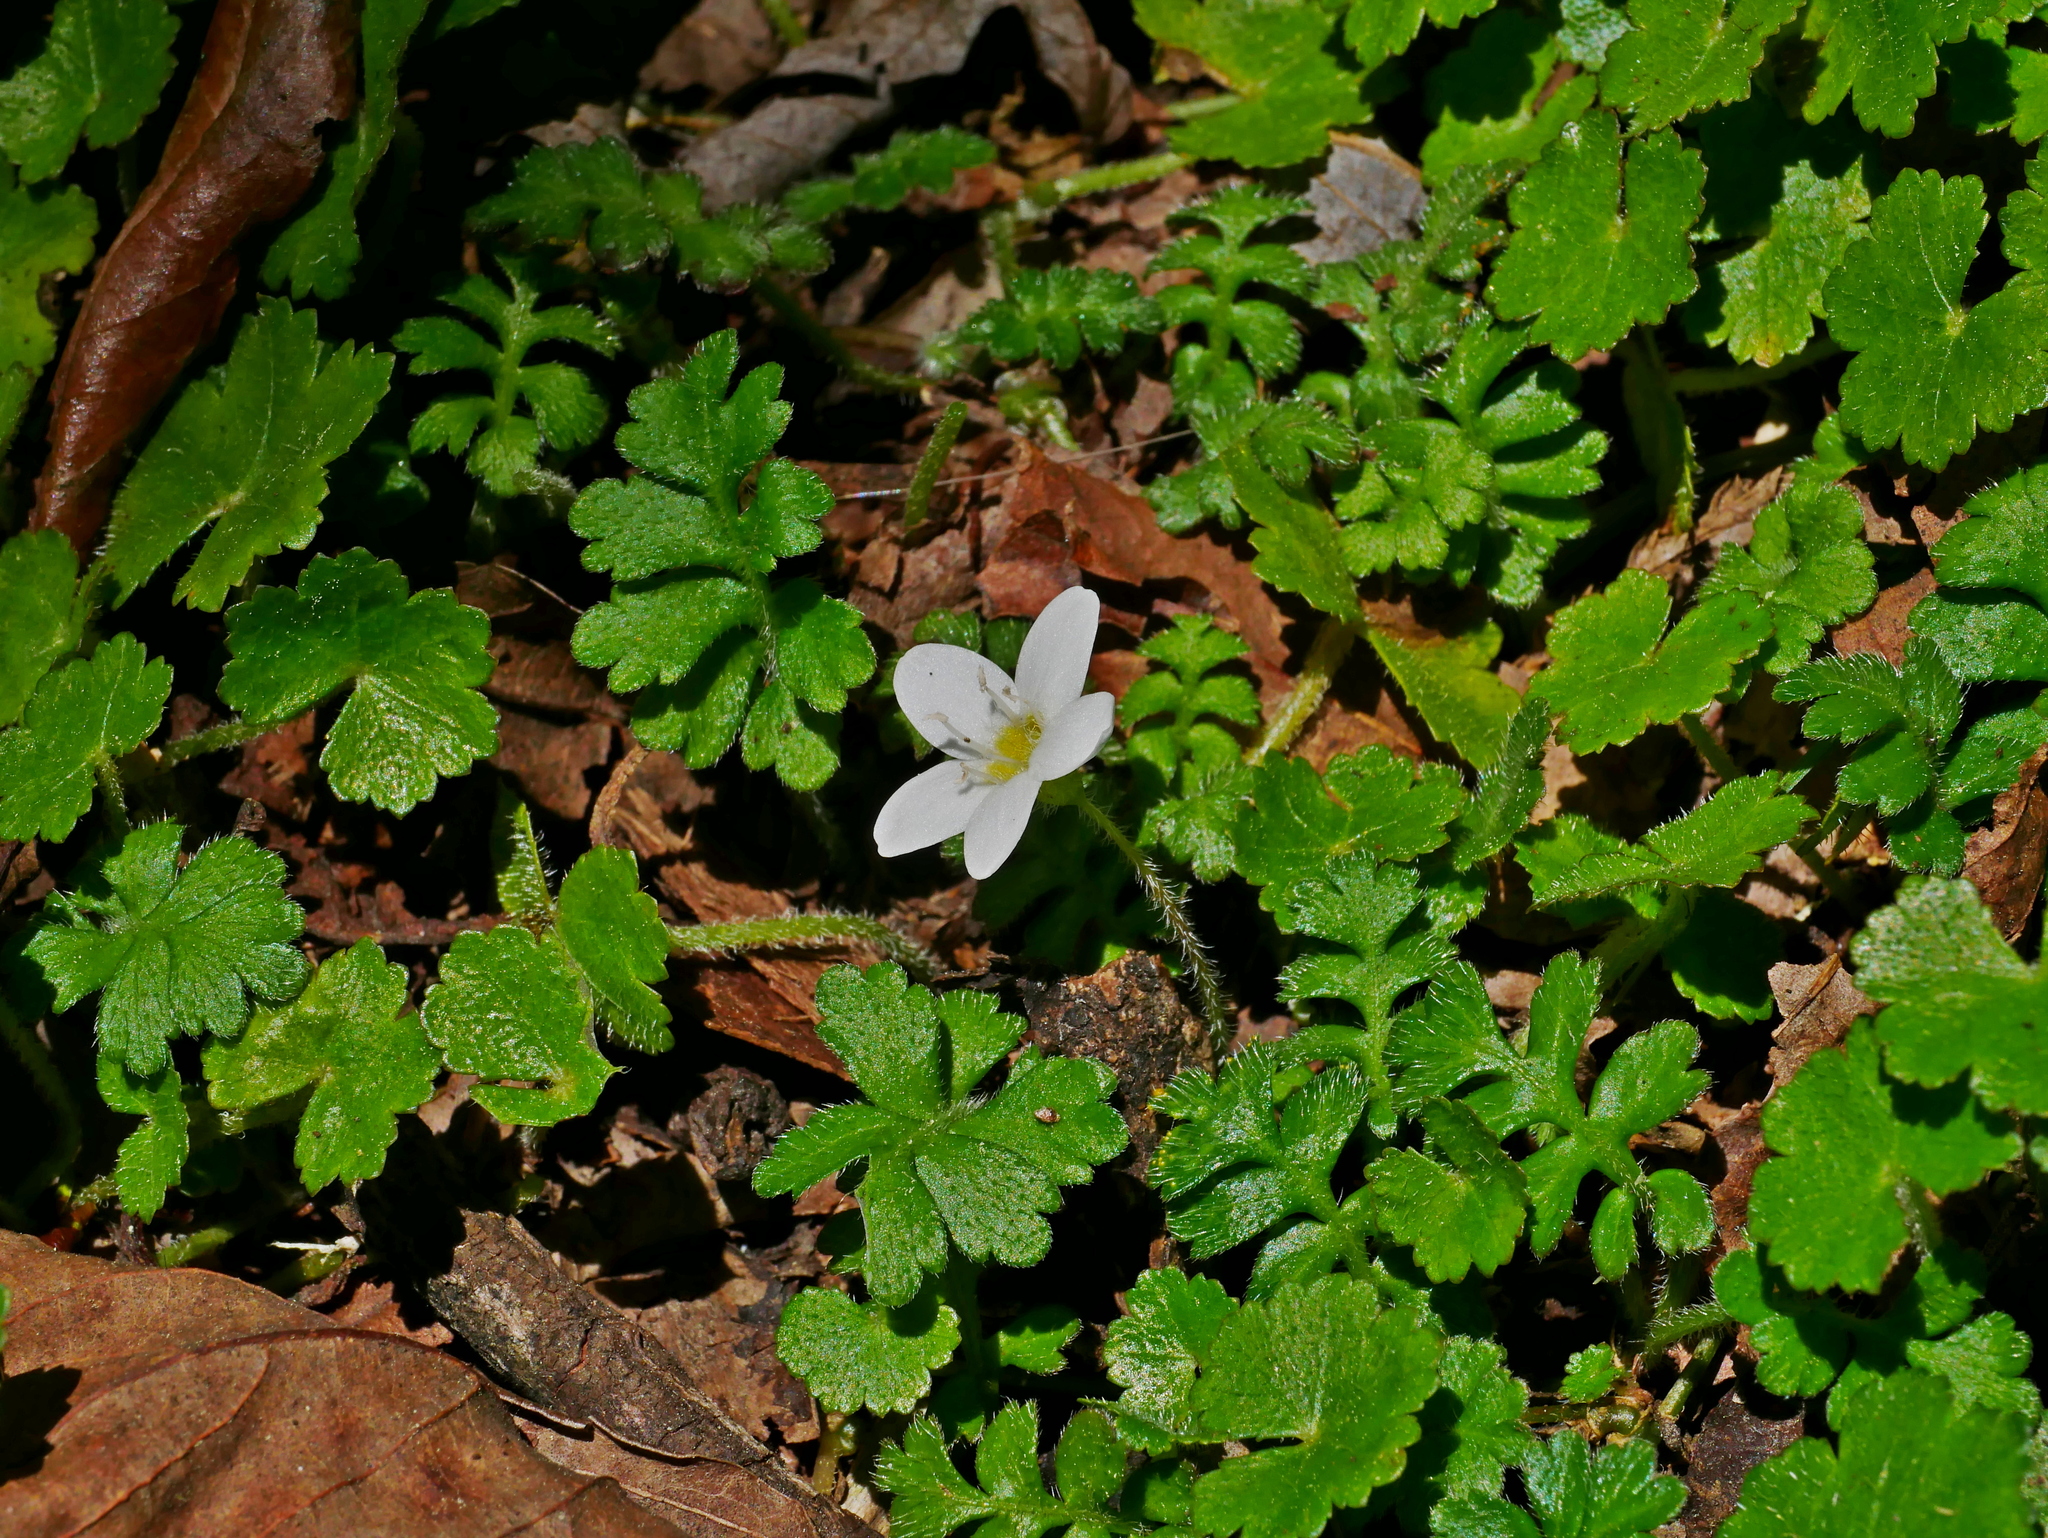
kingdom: Plantae
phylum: Tracheophyta
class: Magnoliopsida
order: Lamiales
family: Plantaginaceae
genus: Ellisiophyllum
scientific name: Ellisiophyllum pinnatum
